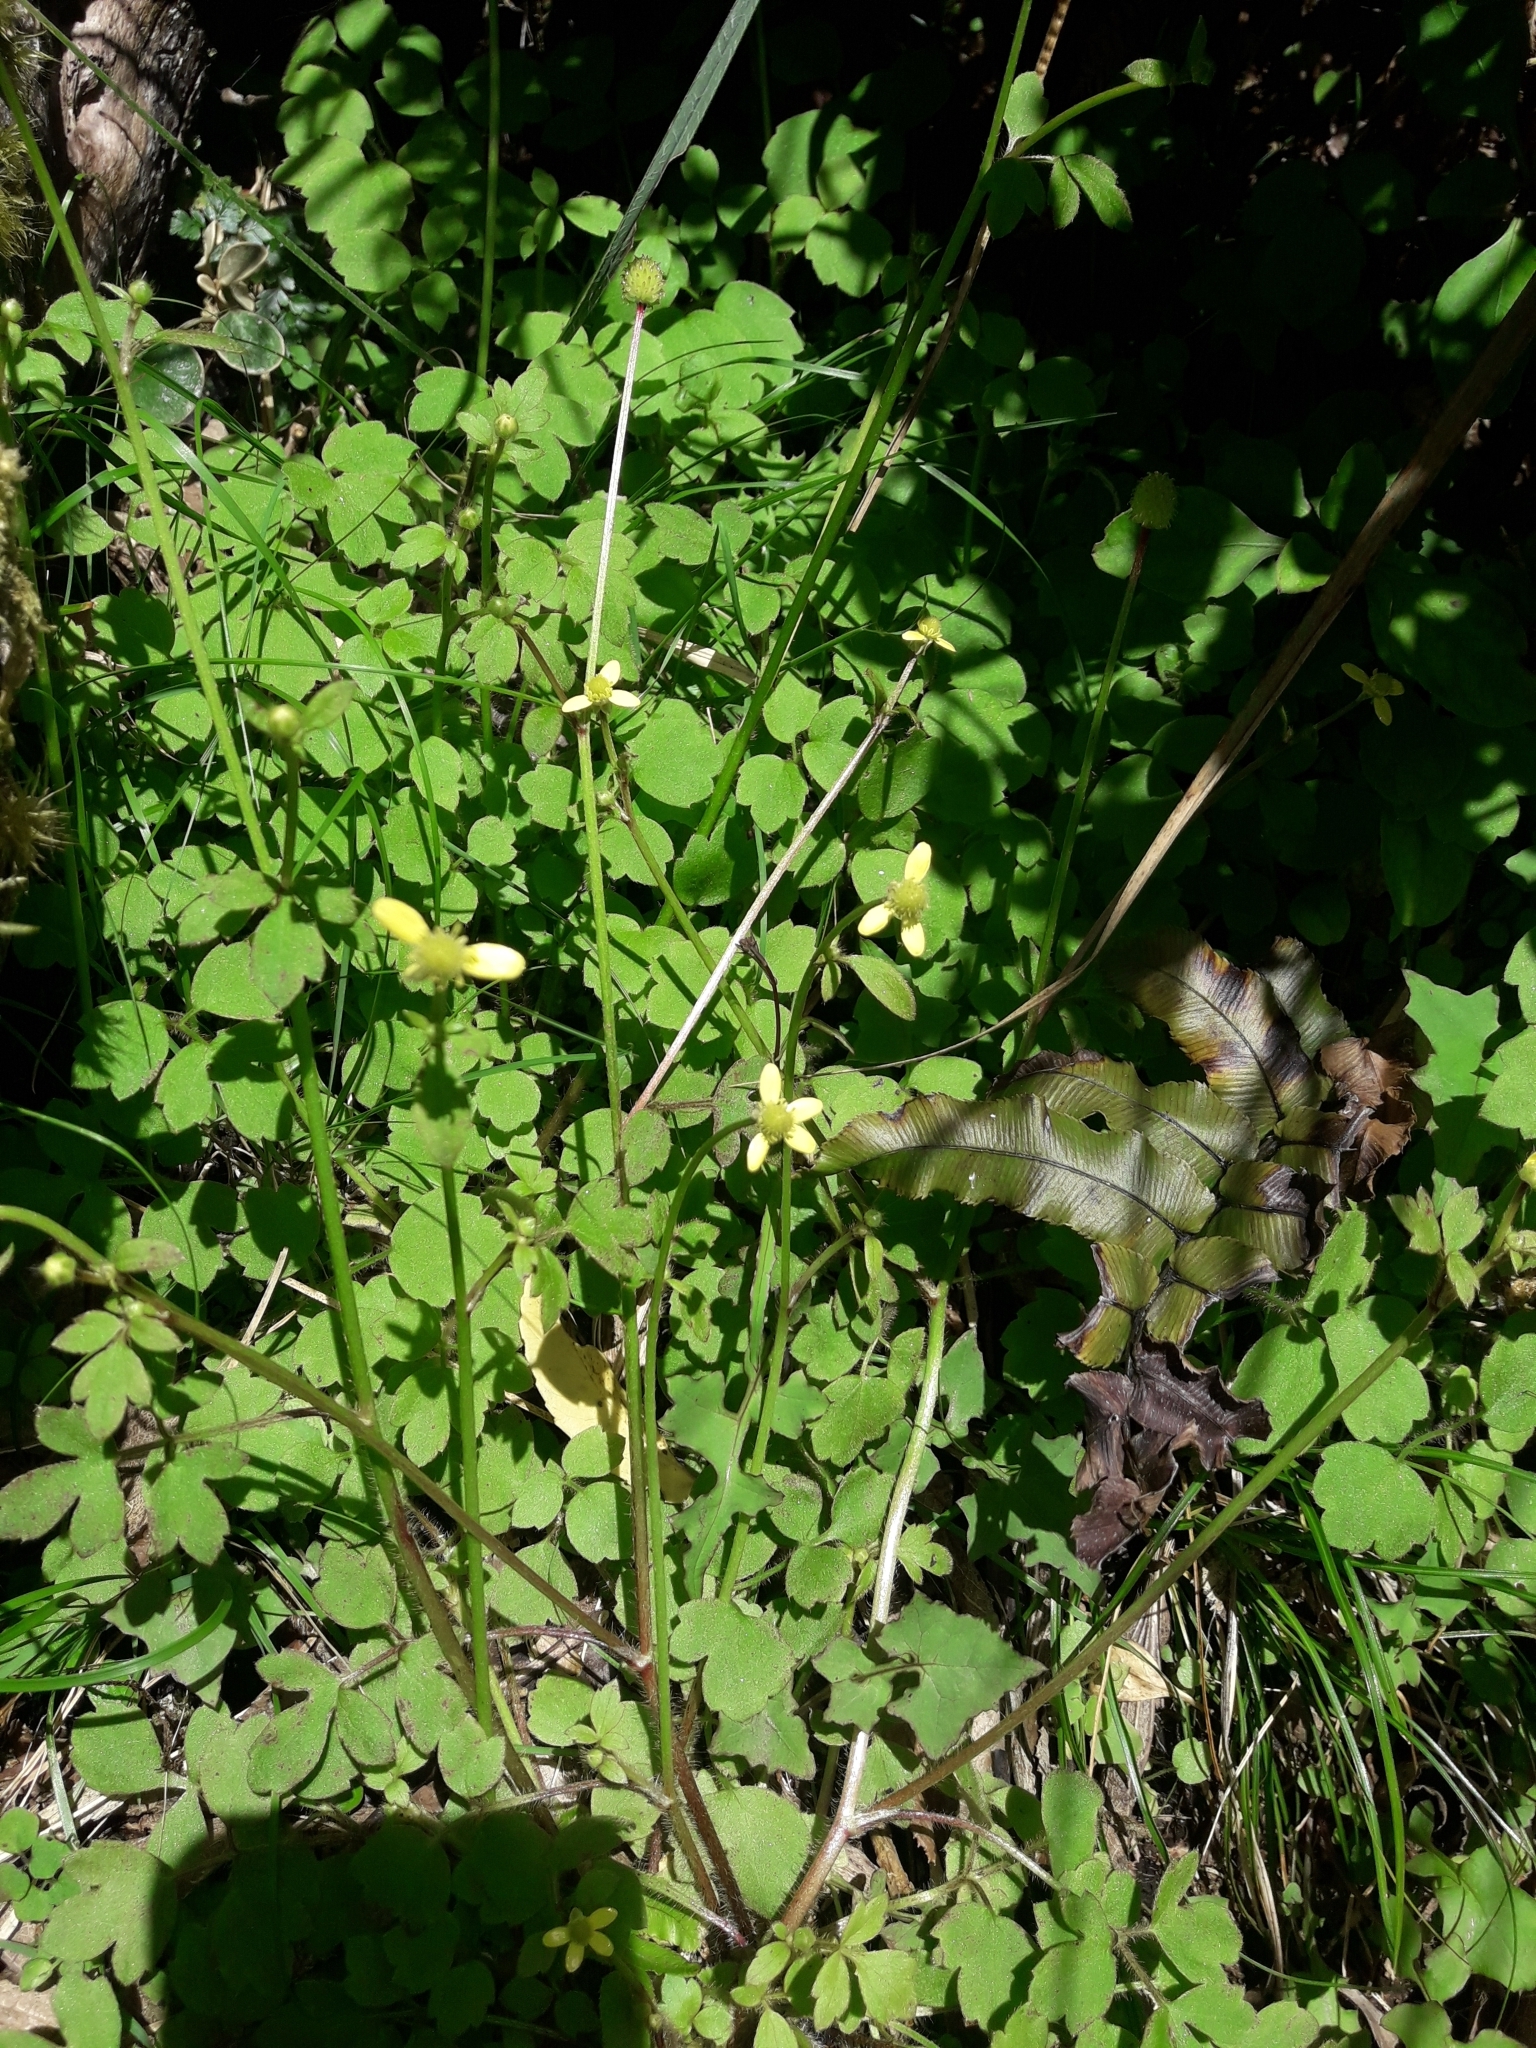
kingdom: Plantae
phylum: Tracheophyta
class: Magnoliopsida
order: Ranunculales
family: Ranunculaceae
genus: Ranunculus
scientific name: Ranunculus reflexus
